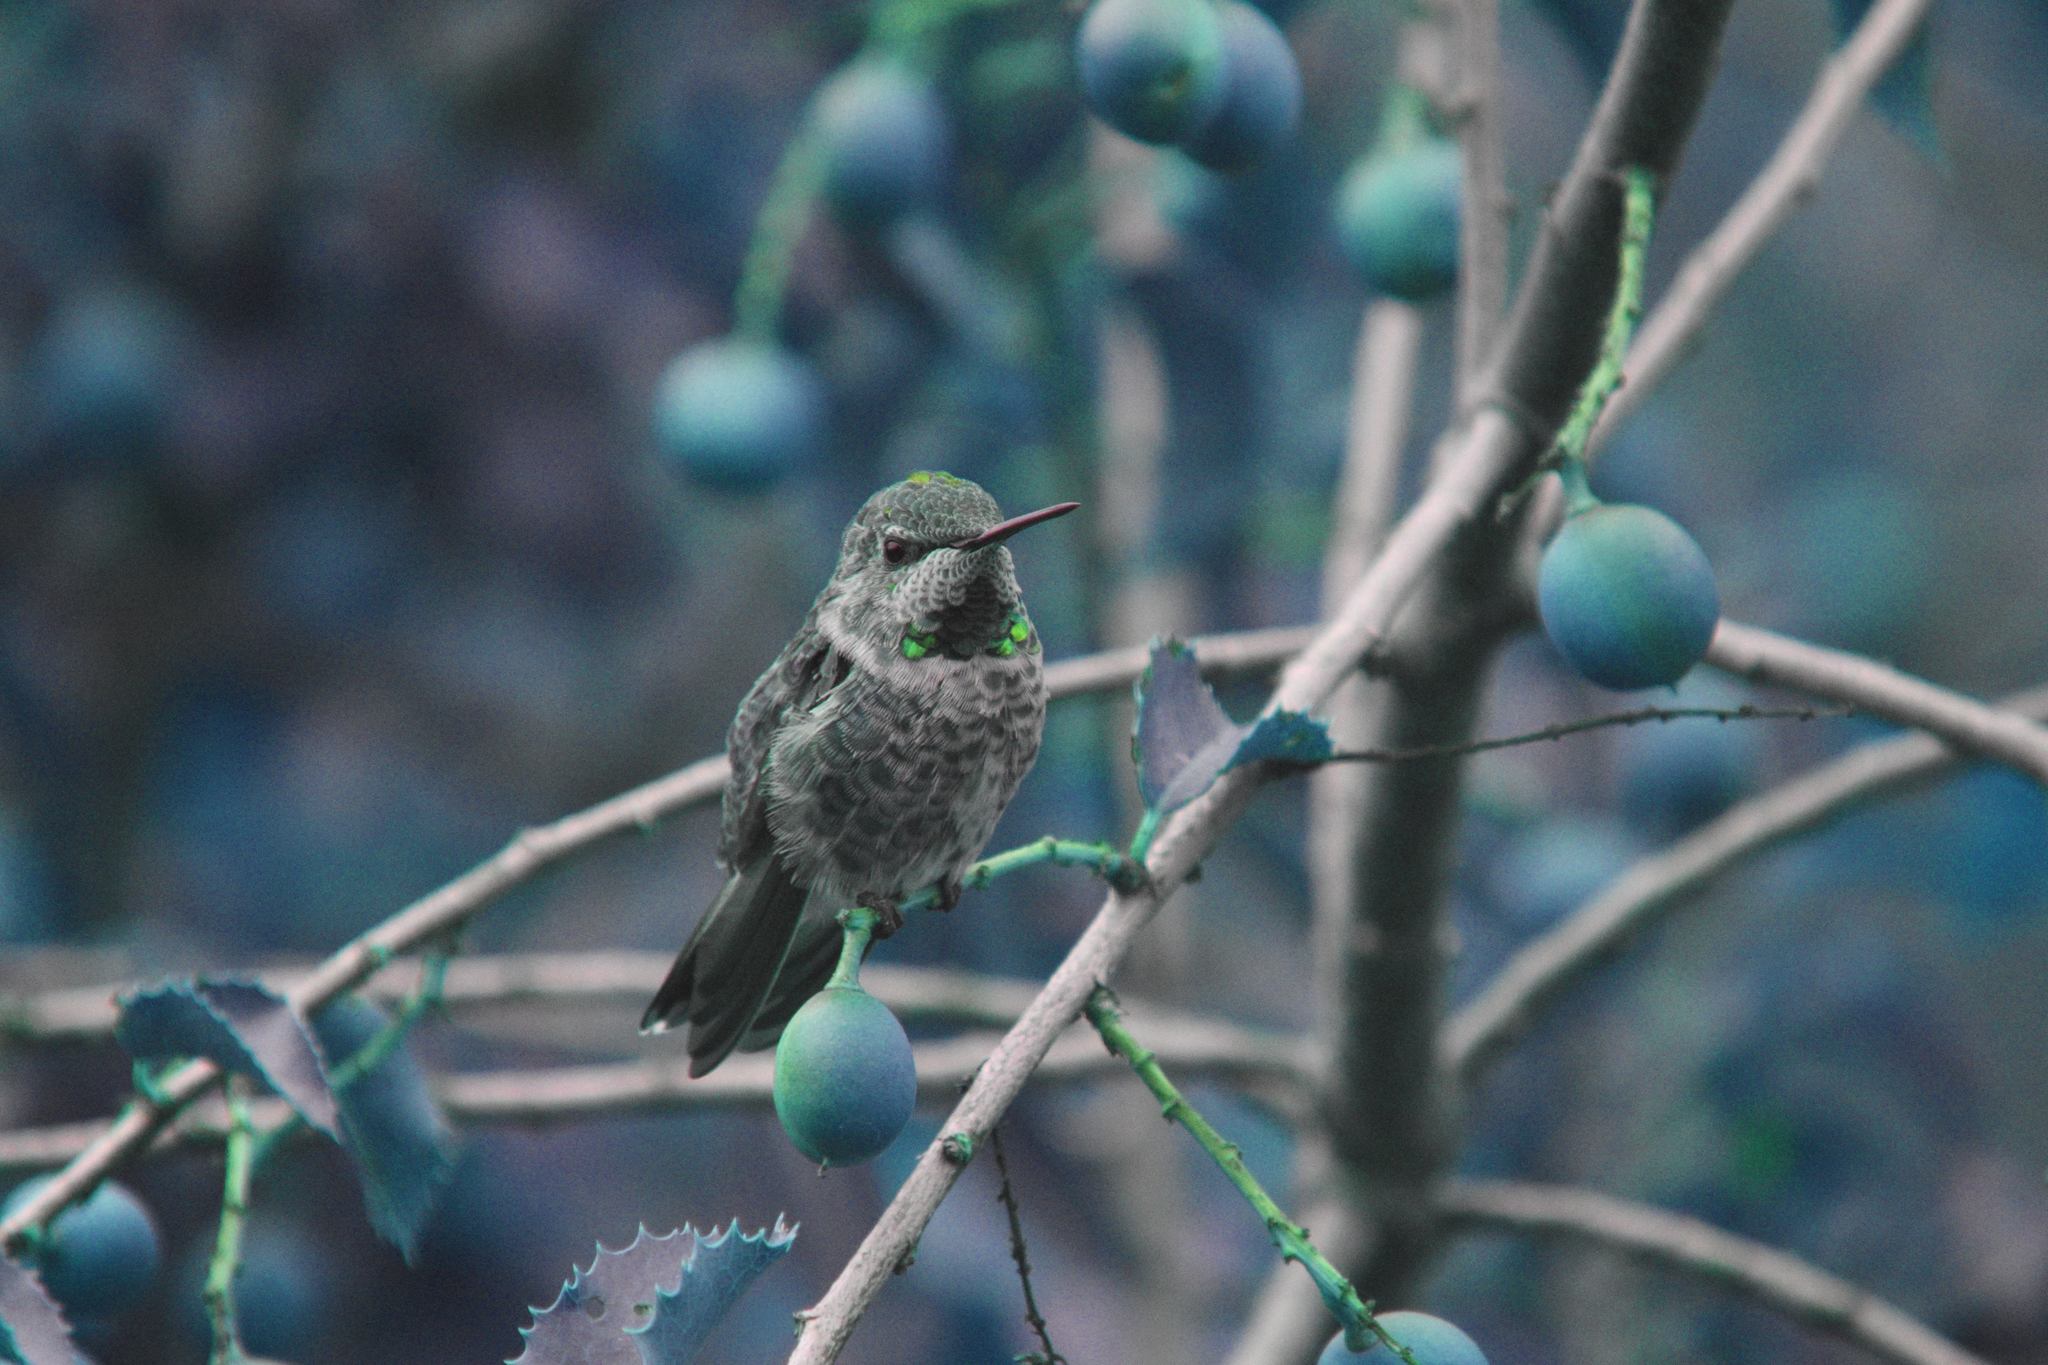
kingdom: Animalia
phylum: Chordata
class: Aves
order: Apodiformes
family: Trochilidae
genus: Calypte
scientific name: Calypte anna
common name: Anna's hummingbird
